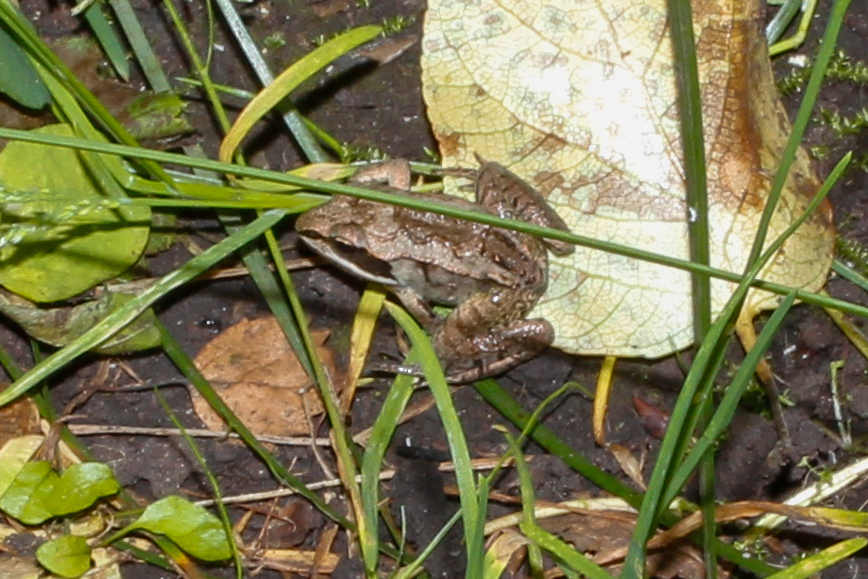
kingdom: Animalia
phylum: Chordata
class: Amphibia
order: Anura
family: Ranidae
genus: Lithobates
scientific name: Lithobates sylvaticus
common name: Wood frog
